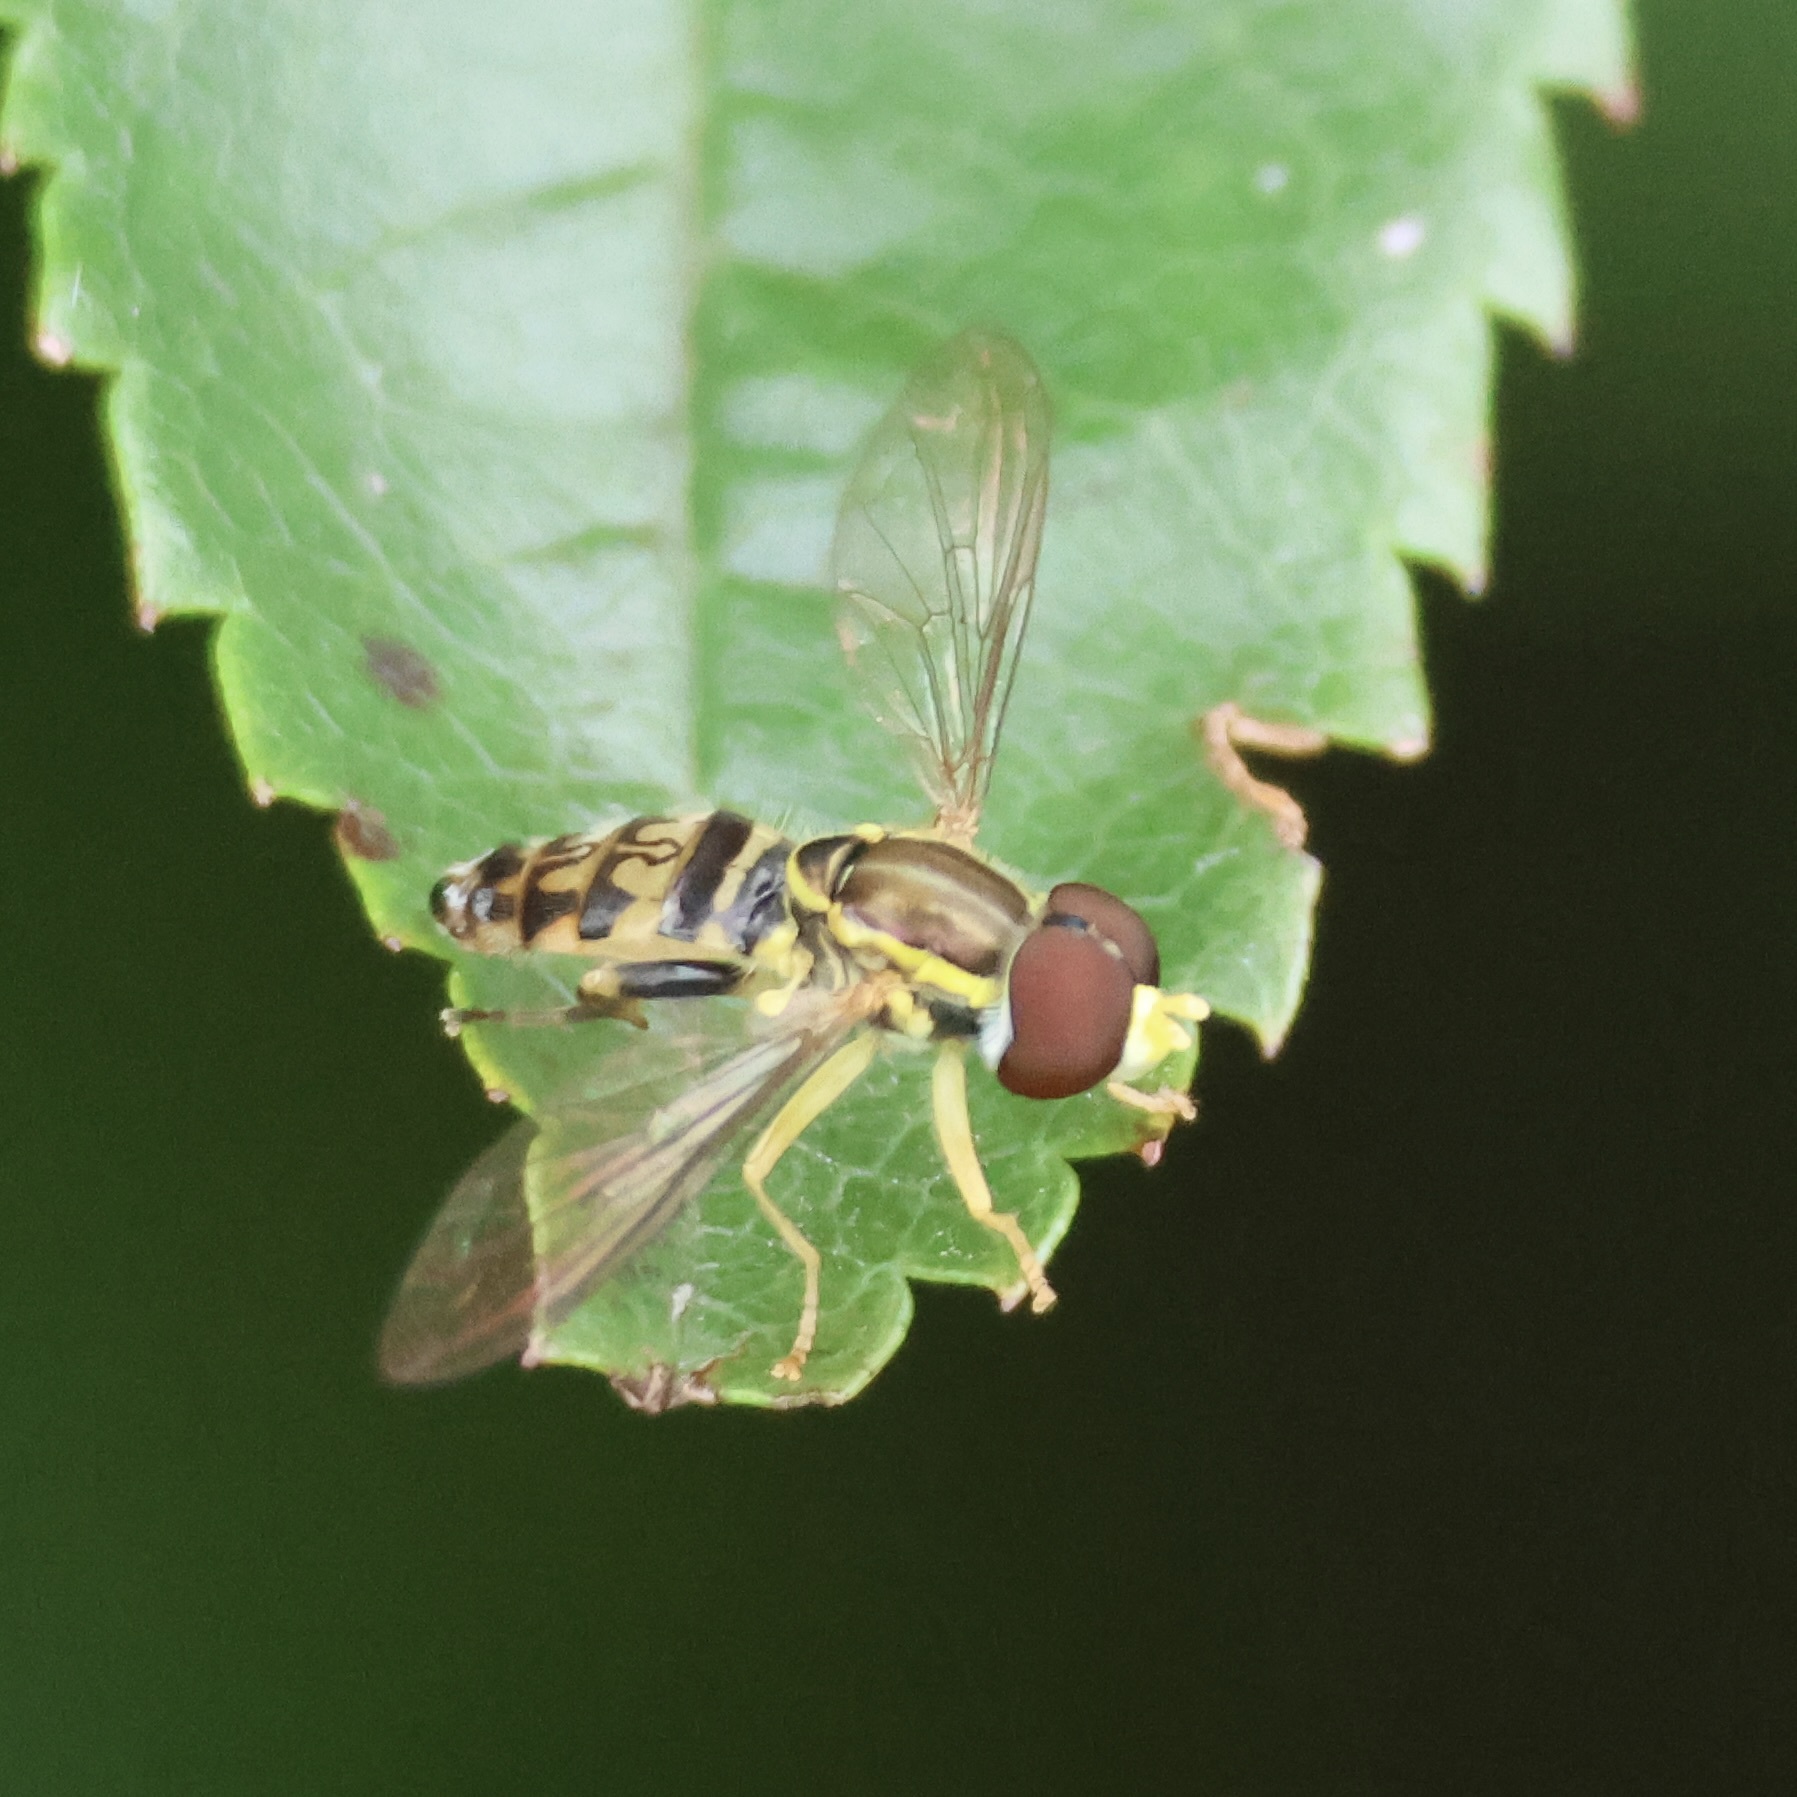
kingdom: Animalia
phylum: Arthropoda
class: Insecta
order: Diptera
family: Syrphidae
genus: Toxomerus
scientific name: Toxomerus geminatus
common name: Eastern calligrapher
